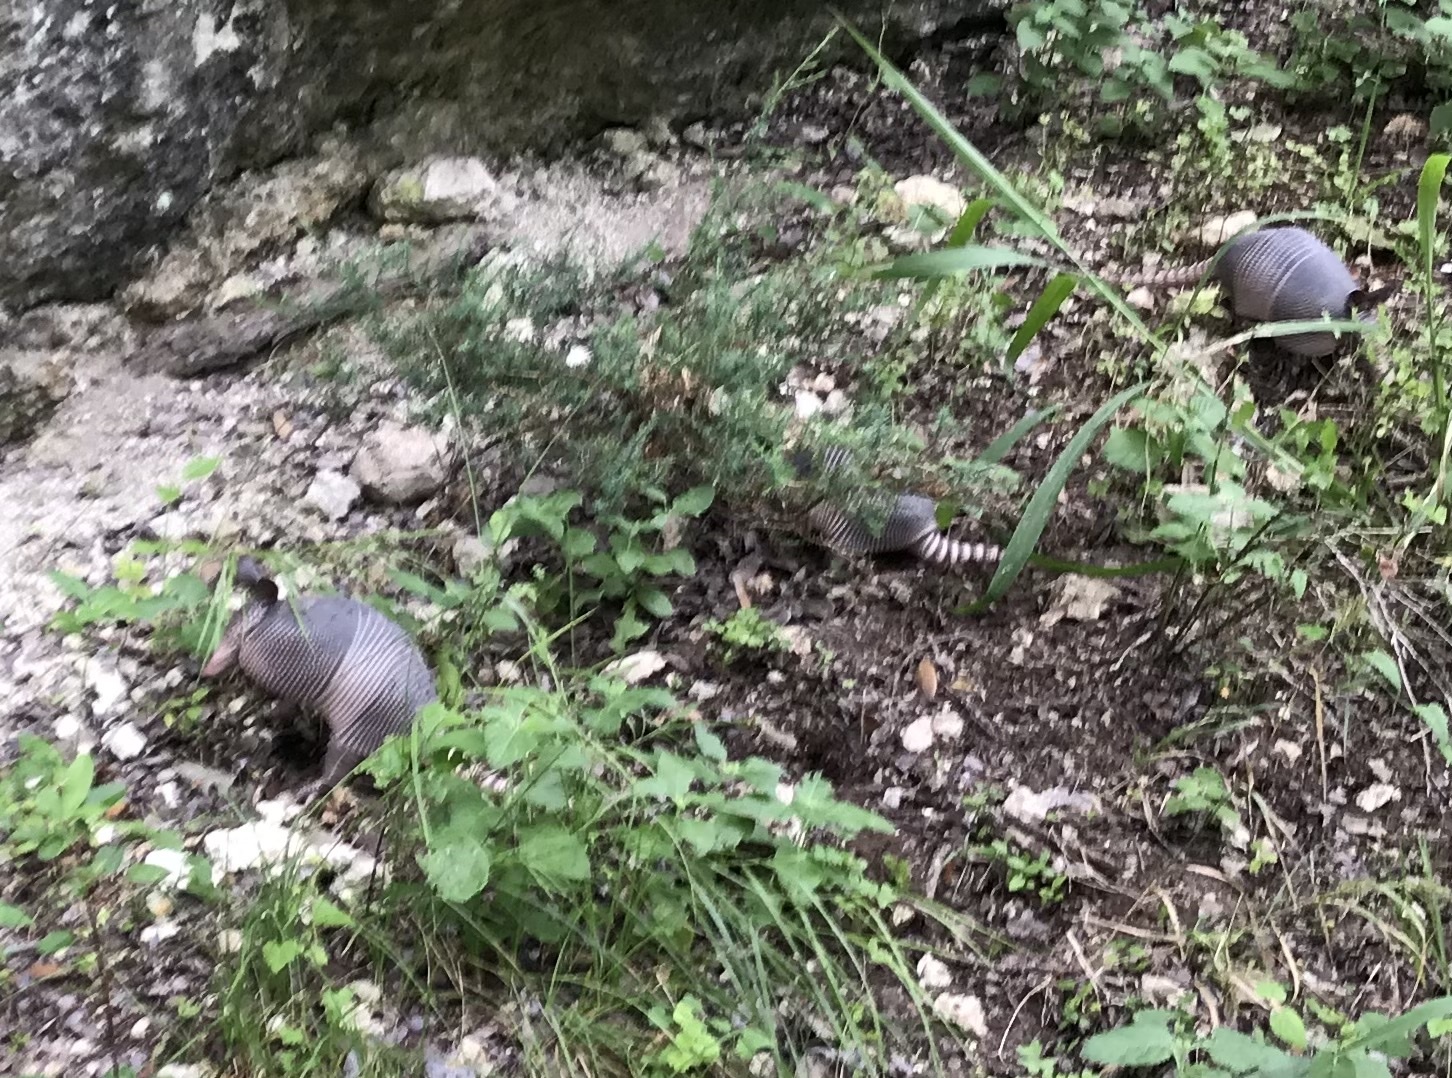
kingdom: Animalia
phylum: Chordata
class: Mammalia
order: Cingulata
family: Dasypodidae
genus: Dasypus
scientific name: Dasypus novemcinctus
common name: Nine-banded armadillo
